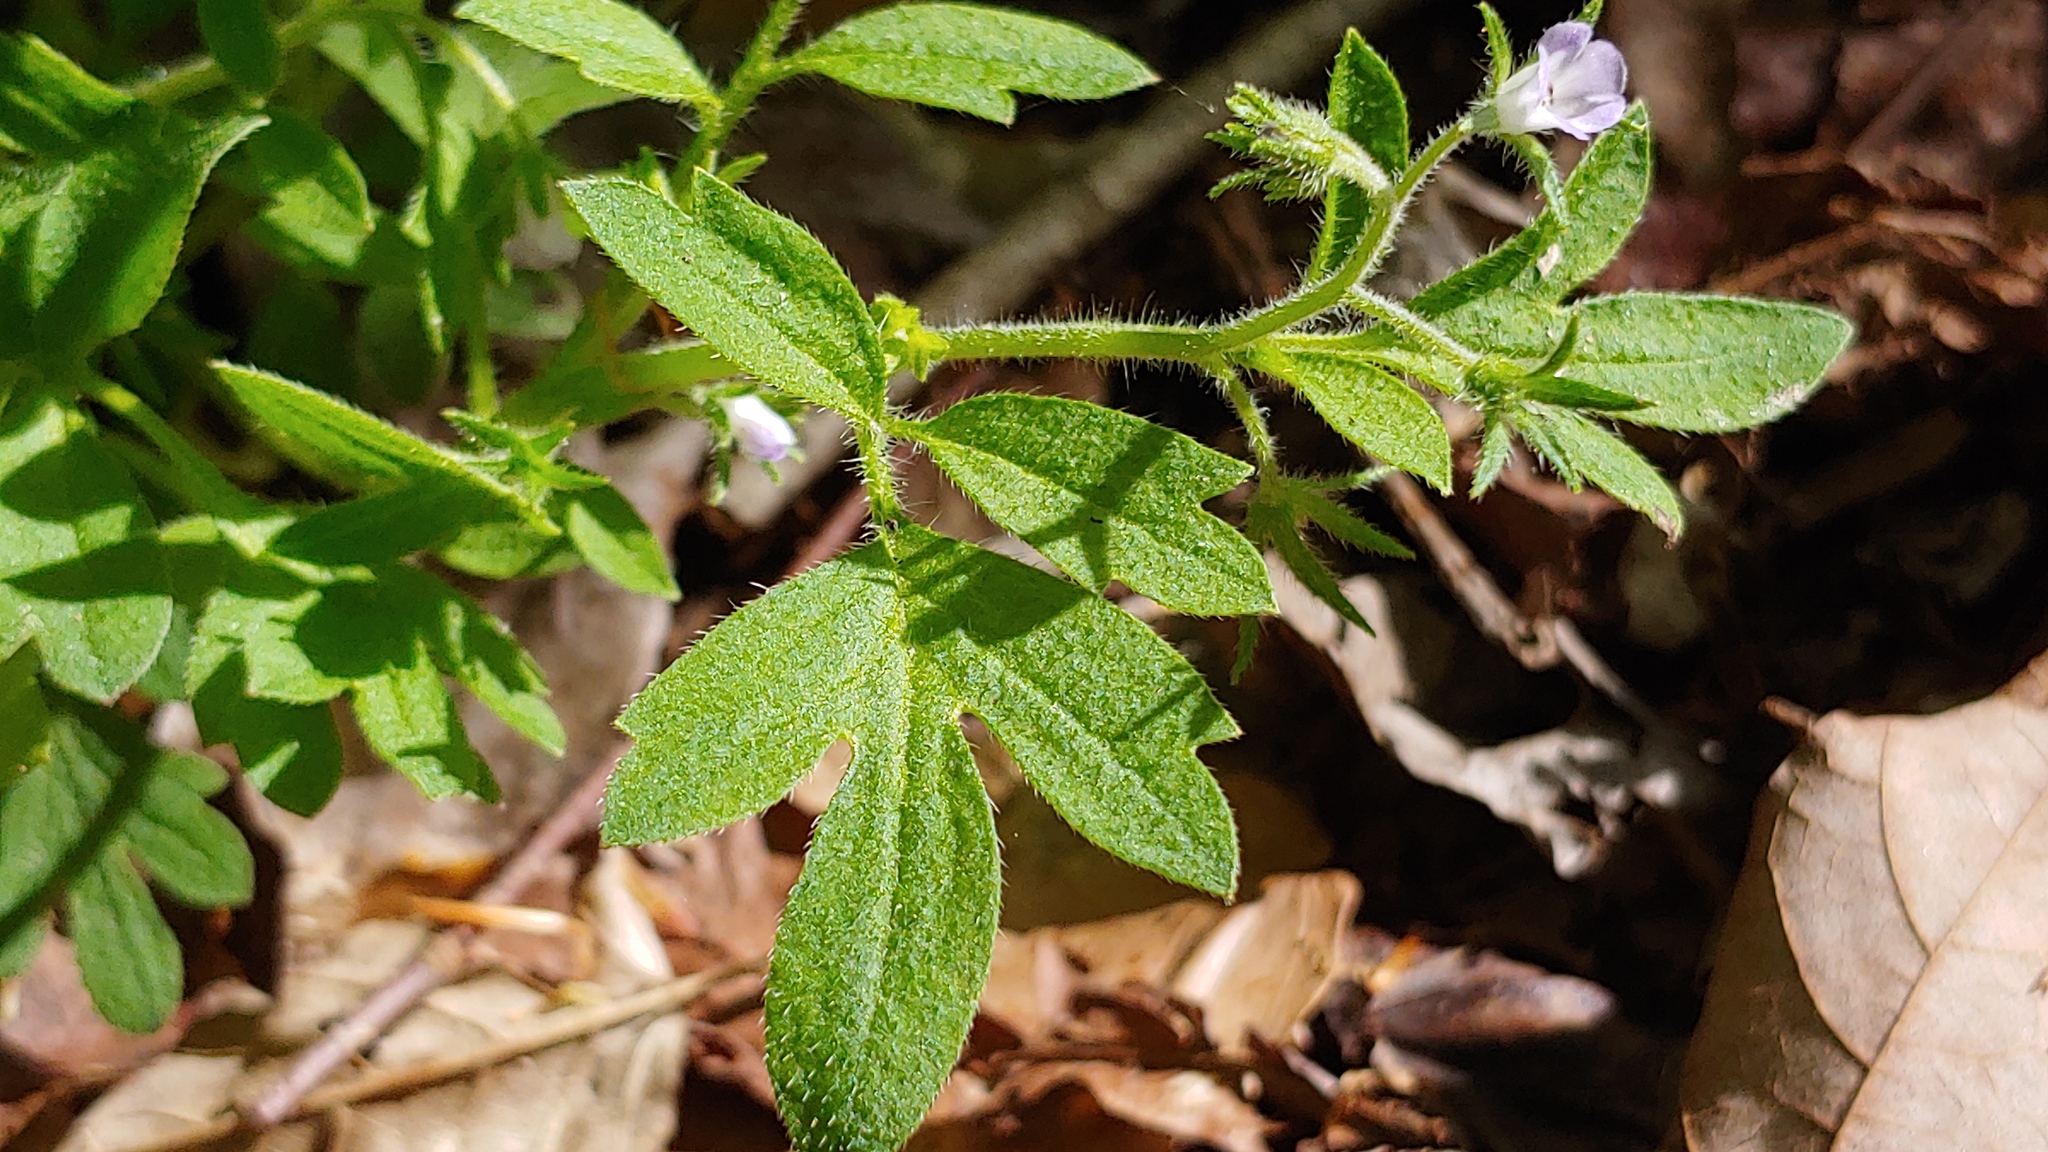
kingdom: Plantae
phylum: Tracheophyta
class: Magnoliopsida
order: Boraginales
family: Hydrophyllaceae
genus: Phacelia
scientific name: Phacelia covillei
